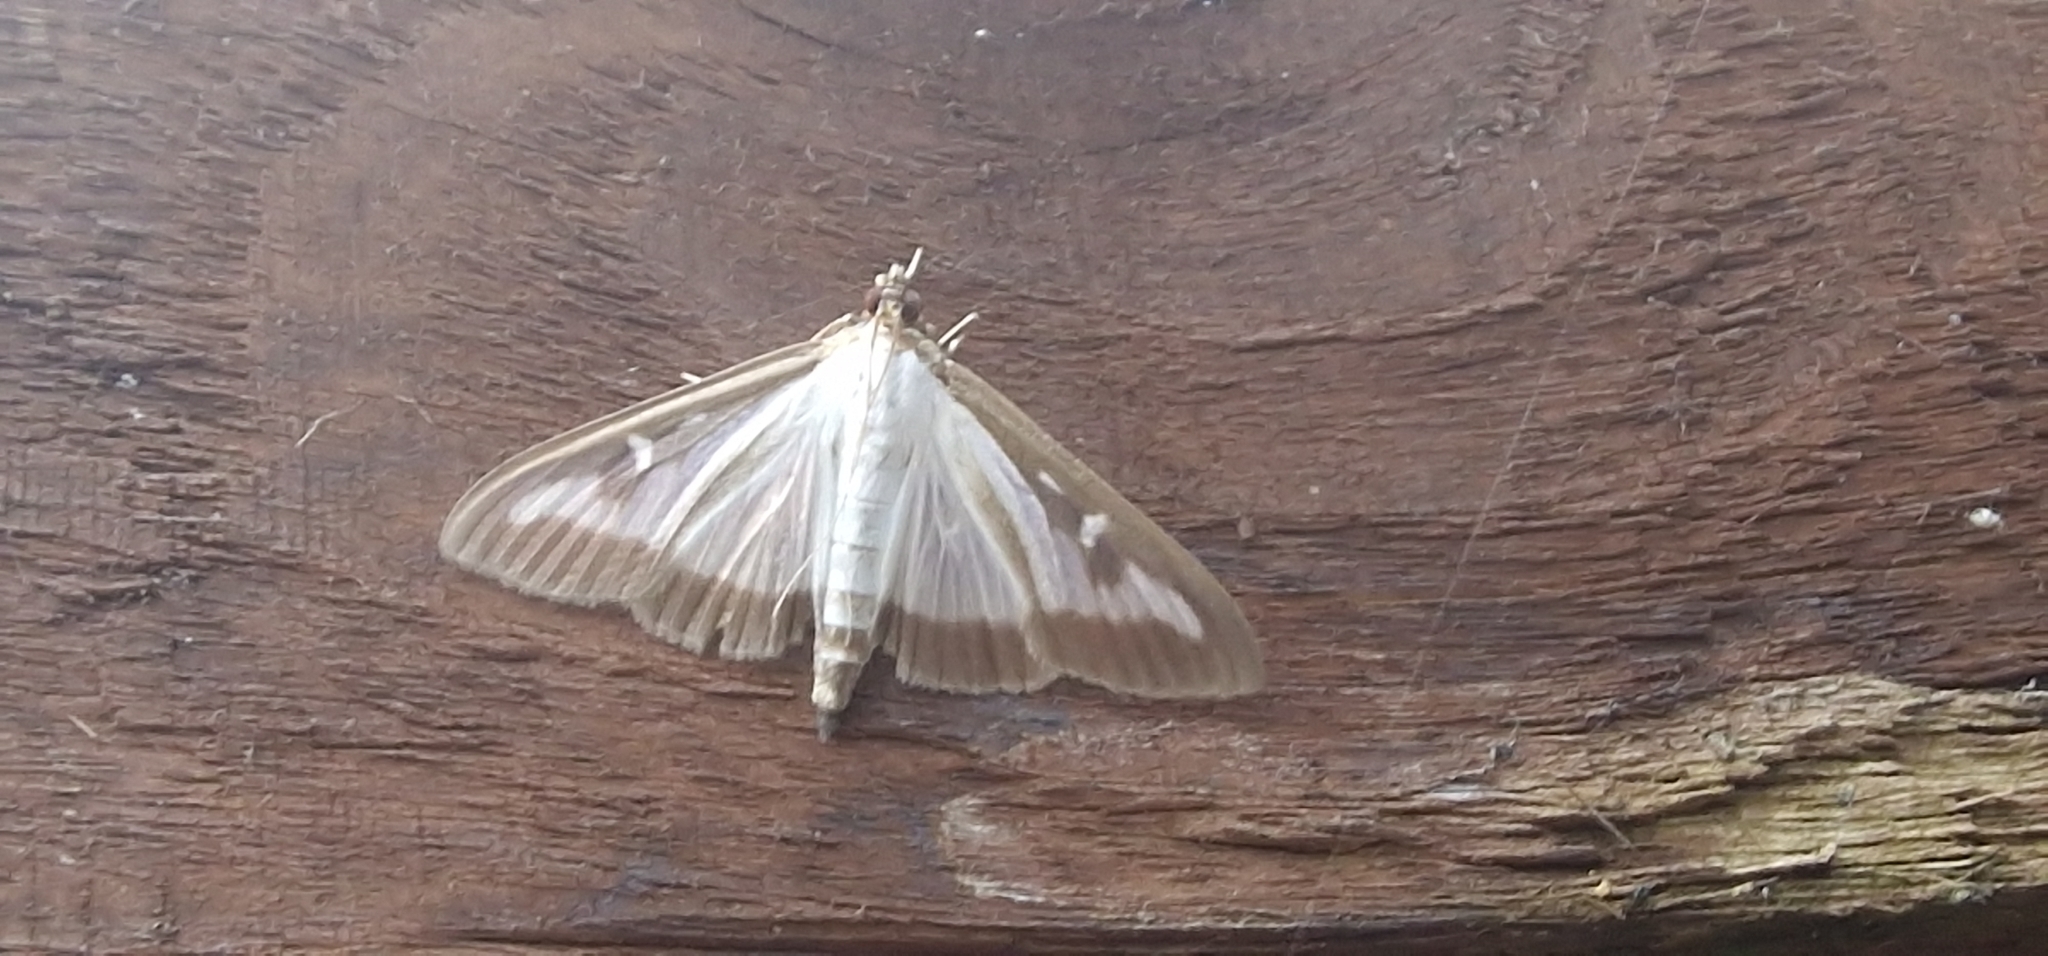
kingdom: Animalia
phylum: Arthropoda
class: Insecta
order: Lepidoptera
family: Crambidae
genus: Cydalima
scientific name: Cydalima perspectalis
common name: Box tree moth
